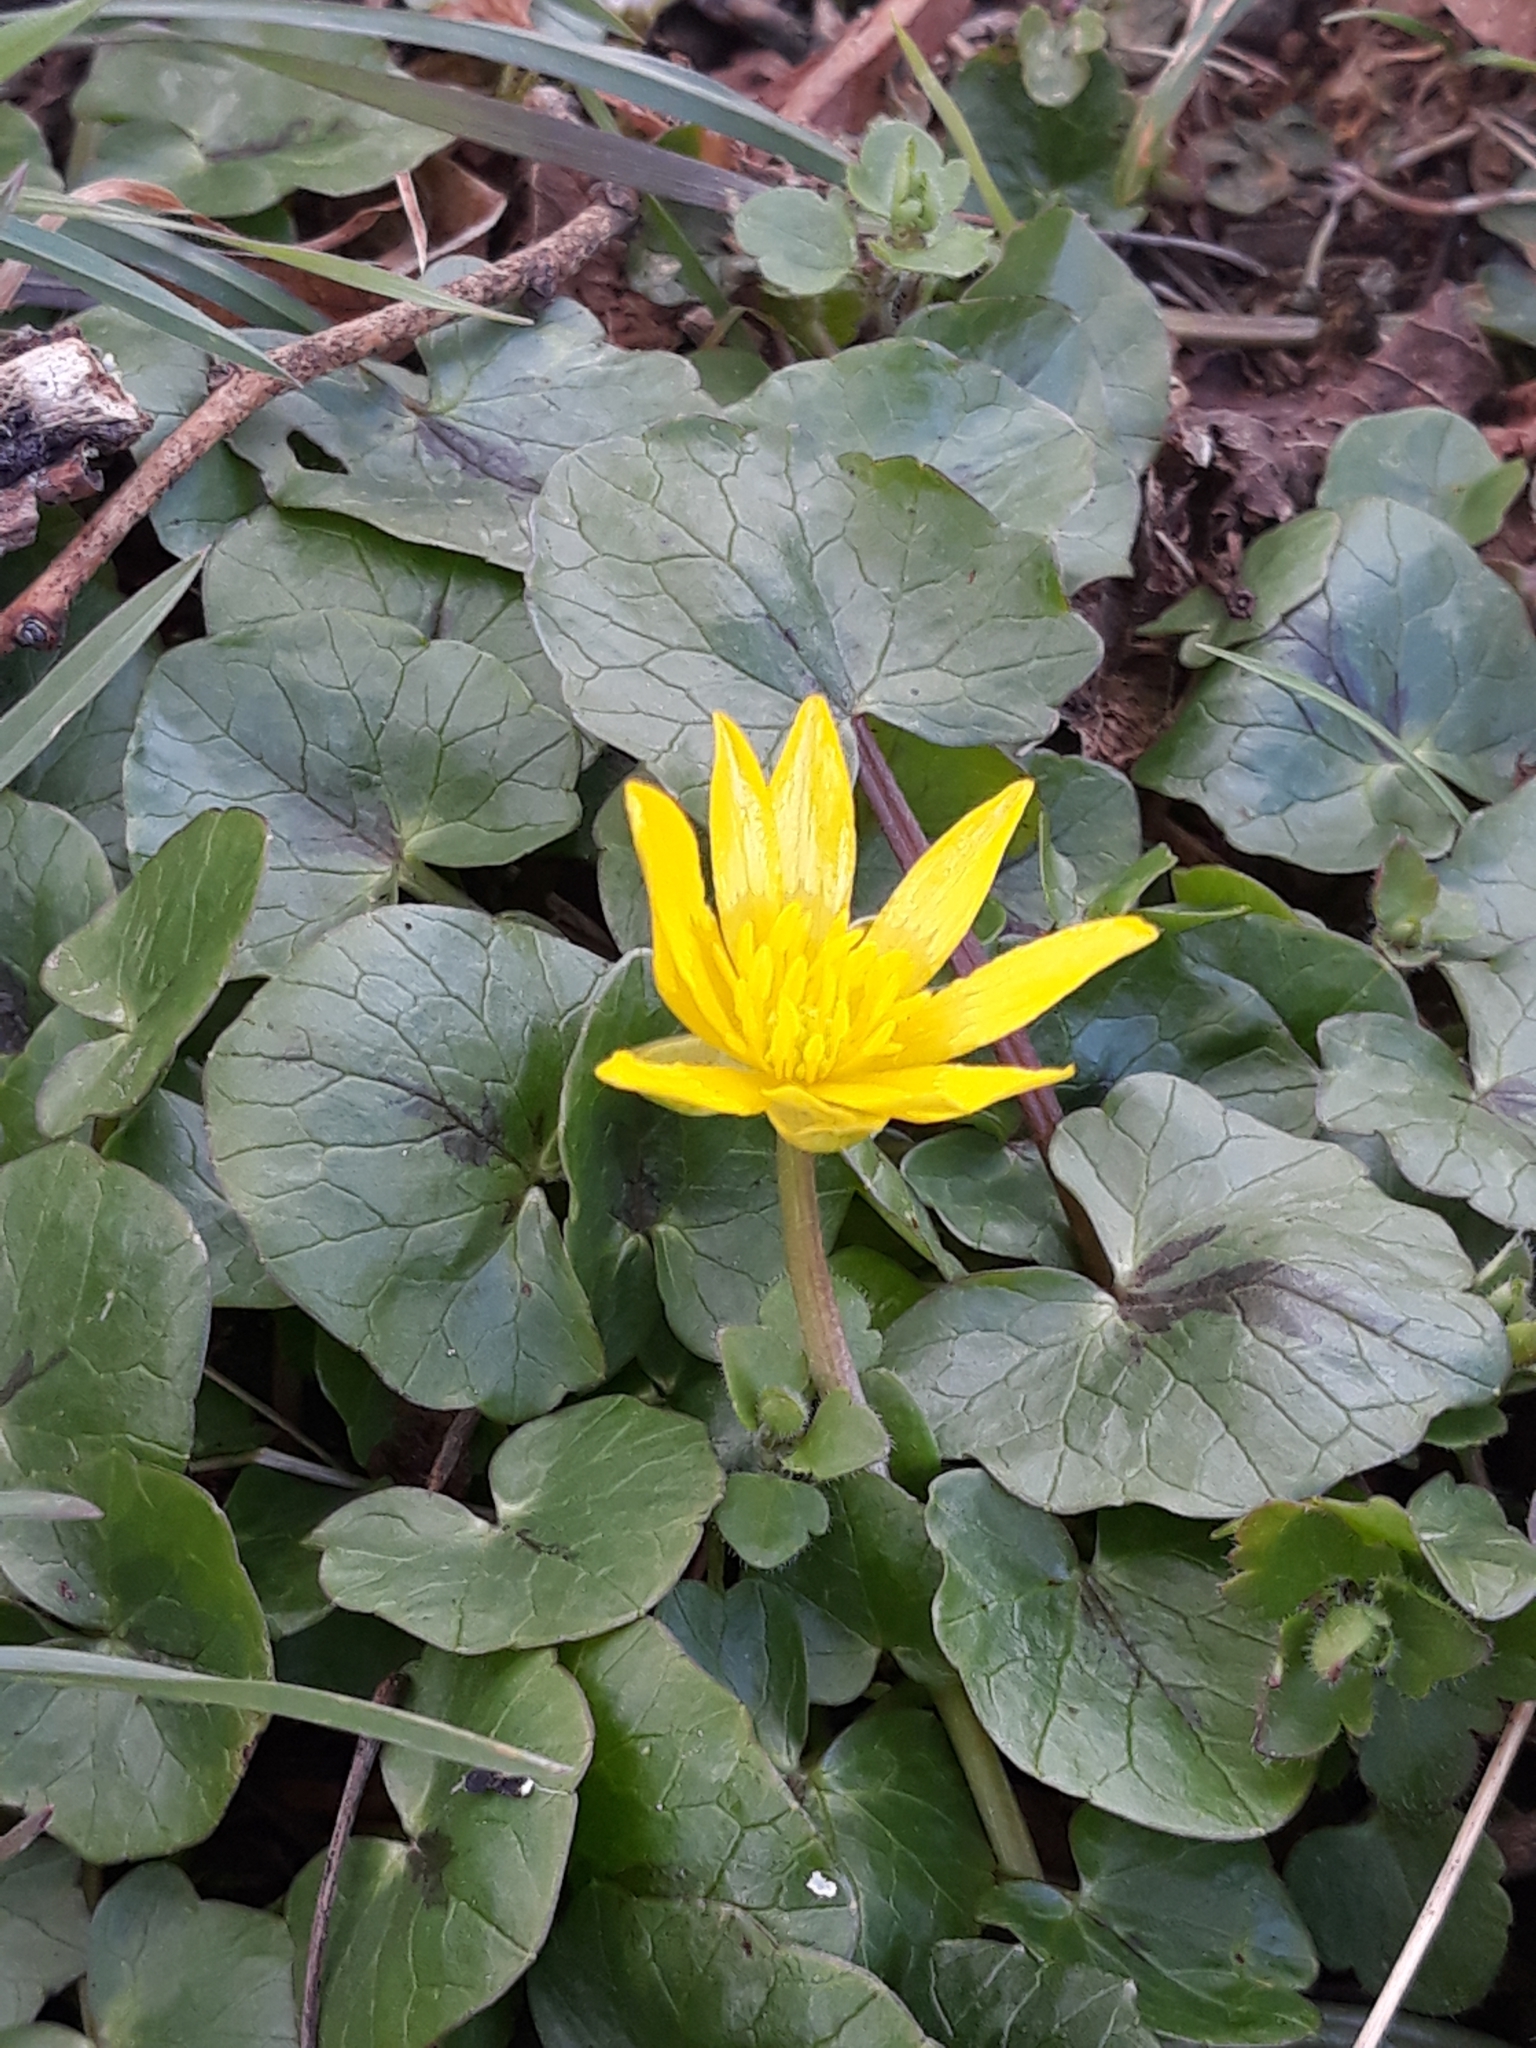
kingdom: Plantae
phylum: Tracheophyta
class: Magnoliopsida
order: Ranunculales
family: Ranunculaceae
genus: Ficaria
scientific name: Ficaria verna
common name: Lesser celandine
